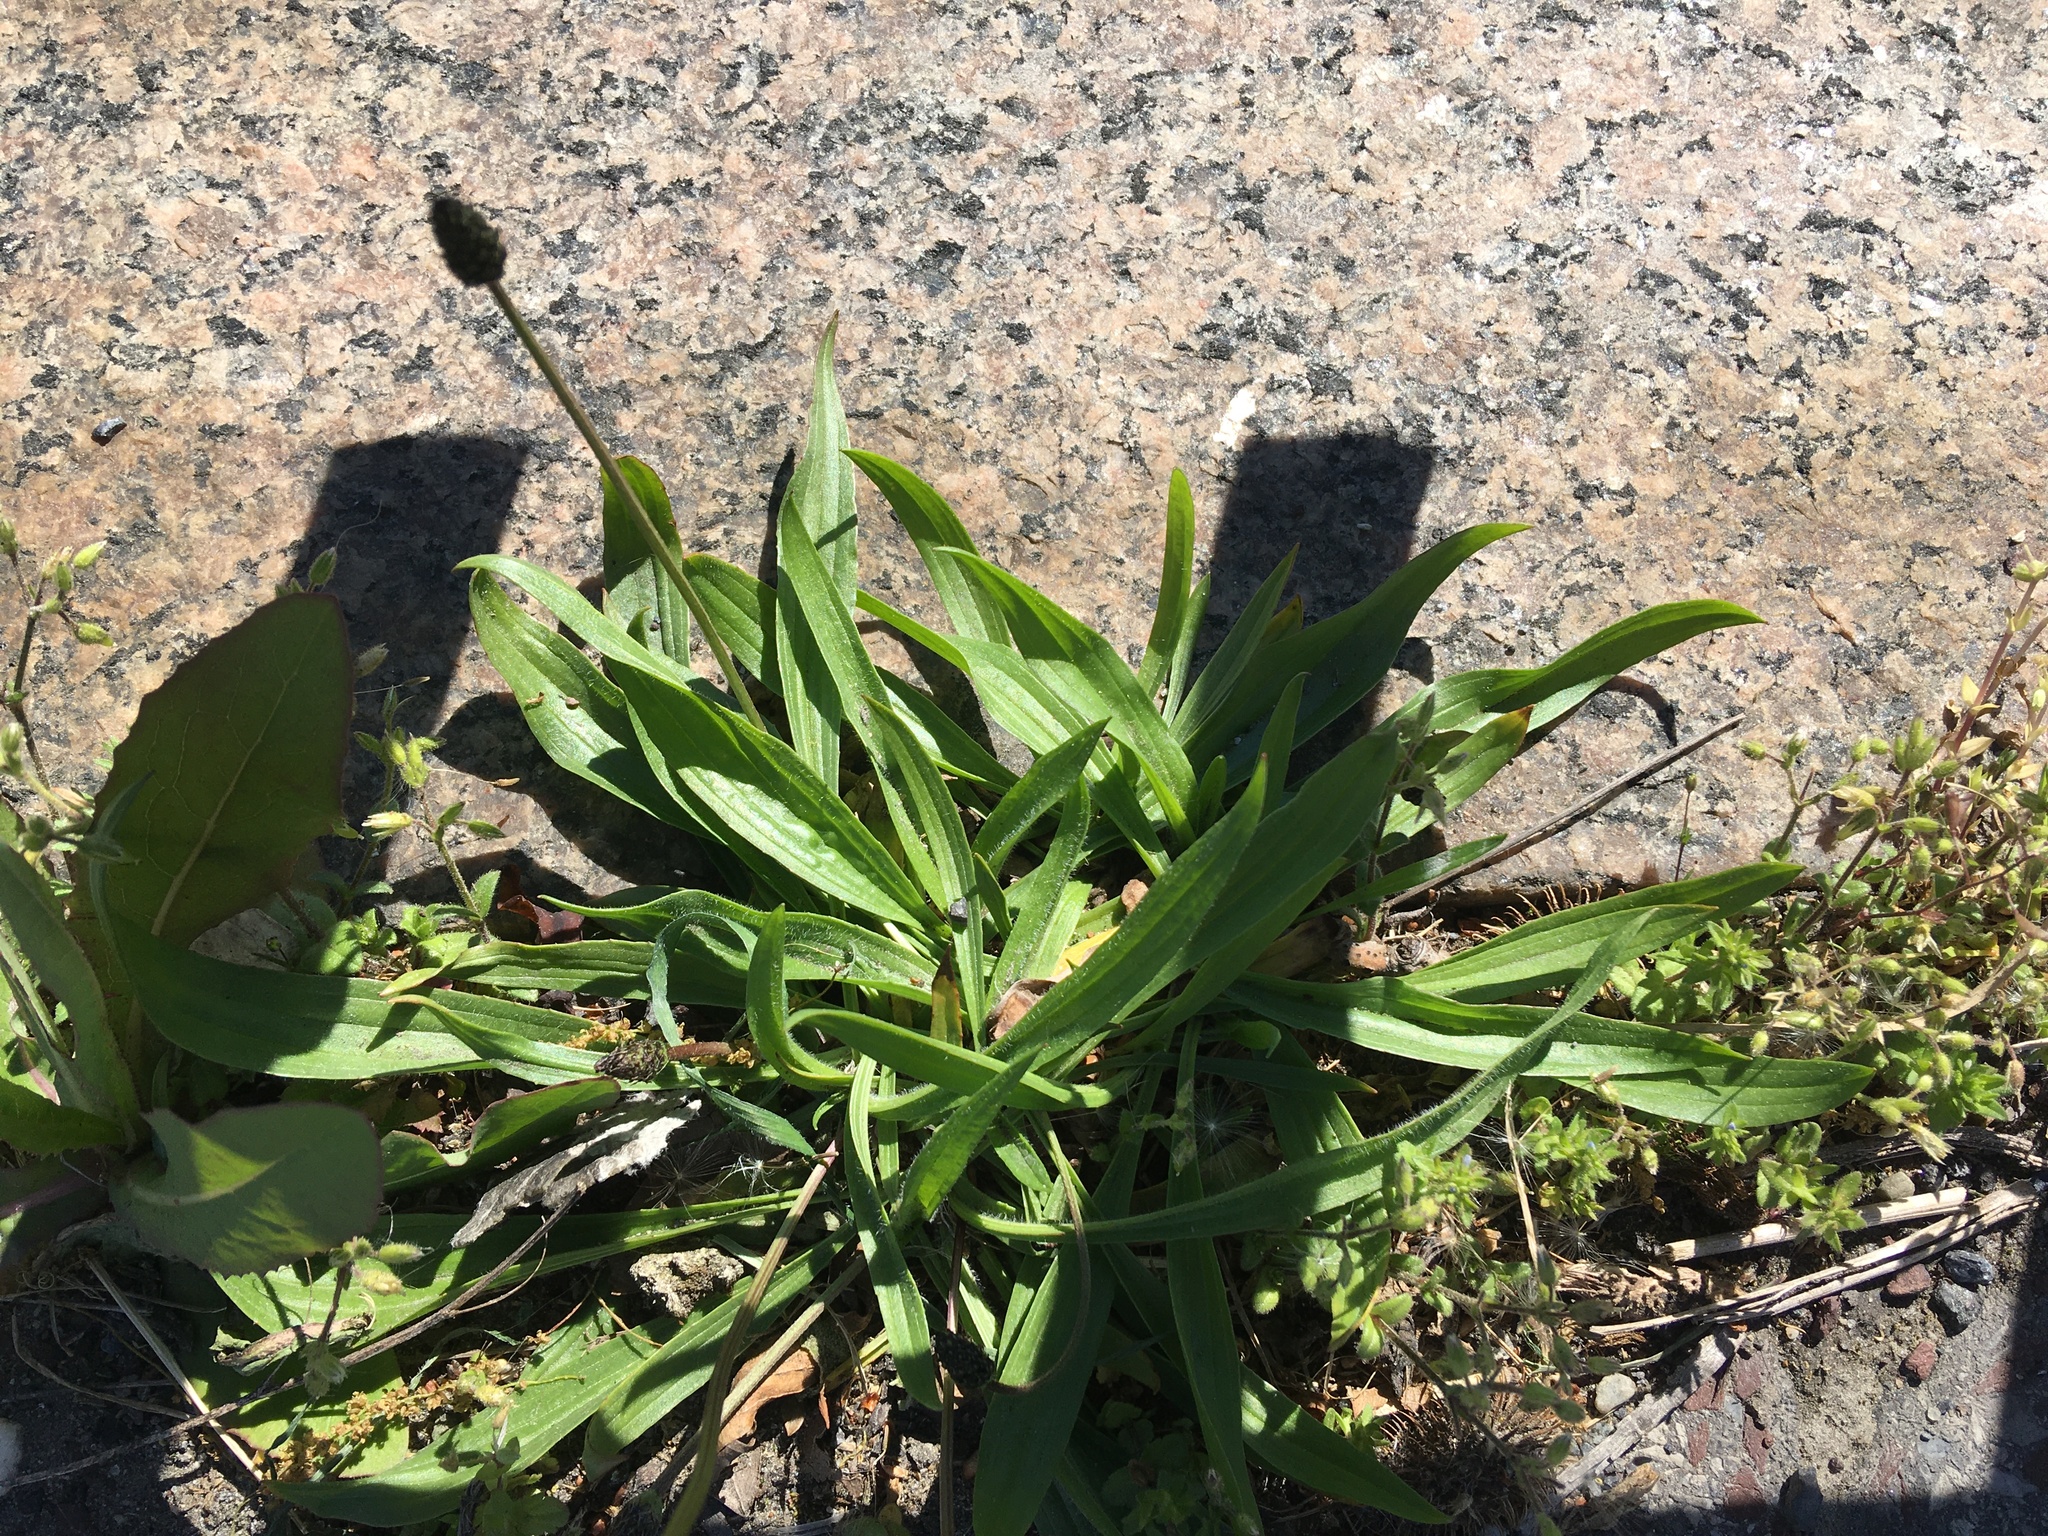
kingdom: Plantae
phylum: Tracheophyta
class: Magnoliopsida
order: Lamiales
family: Plantaginaceae
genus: Plantago
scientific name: Plantago lanceolata
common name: Ribwort plantain
